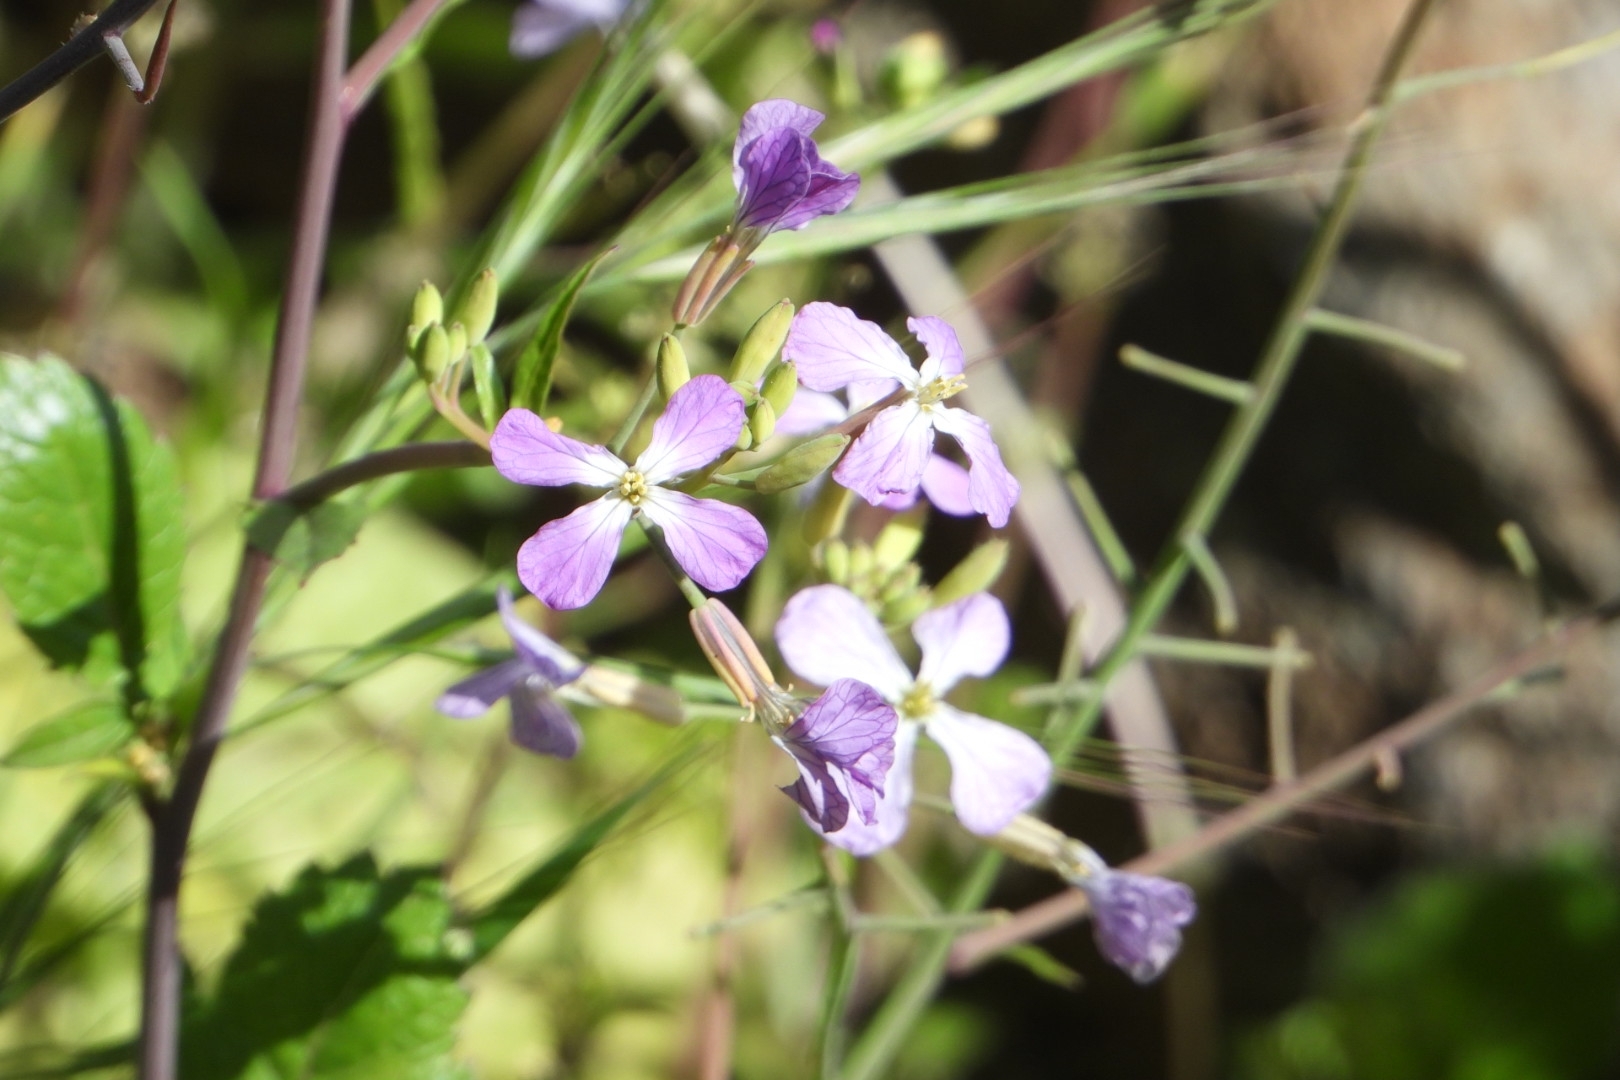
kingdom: Plantae
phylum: Tracheophyta
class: Magnoliopsida
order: Brassicales
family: Brassicaceae
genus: Raphanus
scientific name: Raphanus sativus
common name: Cultivated radish
